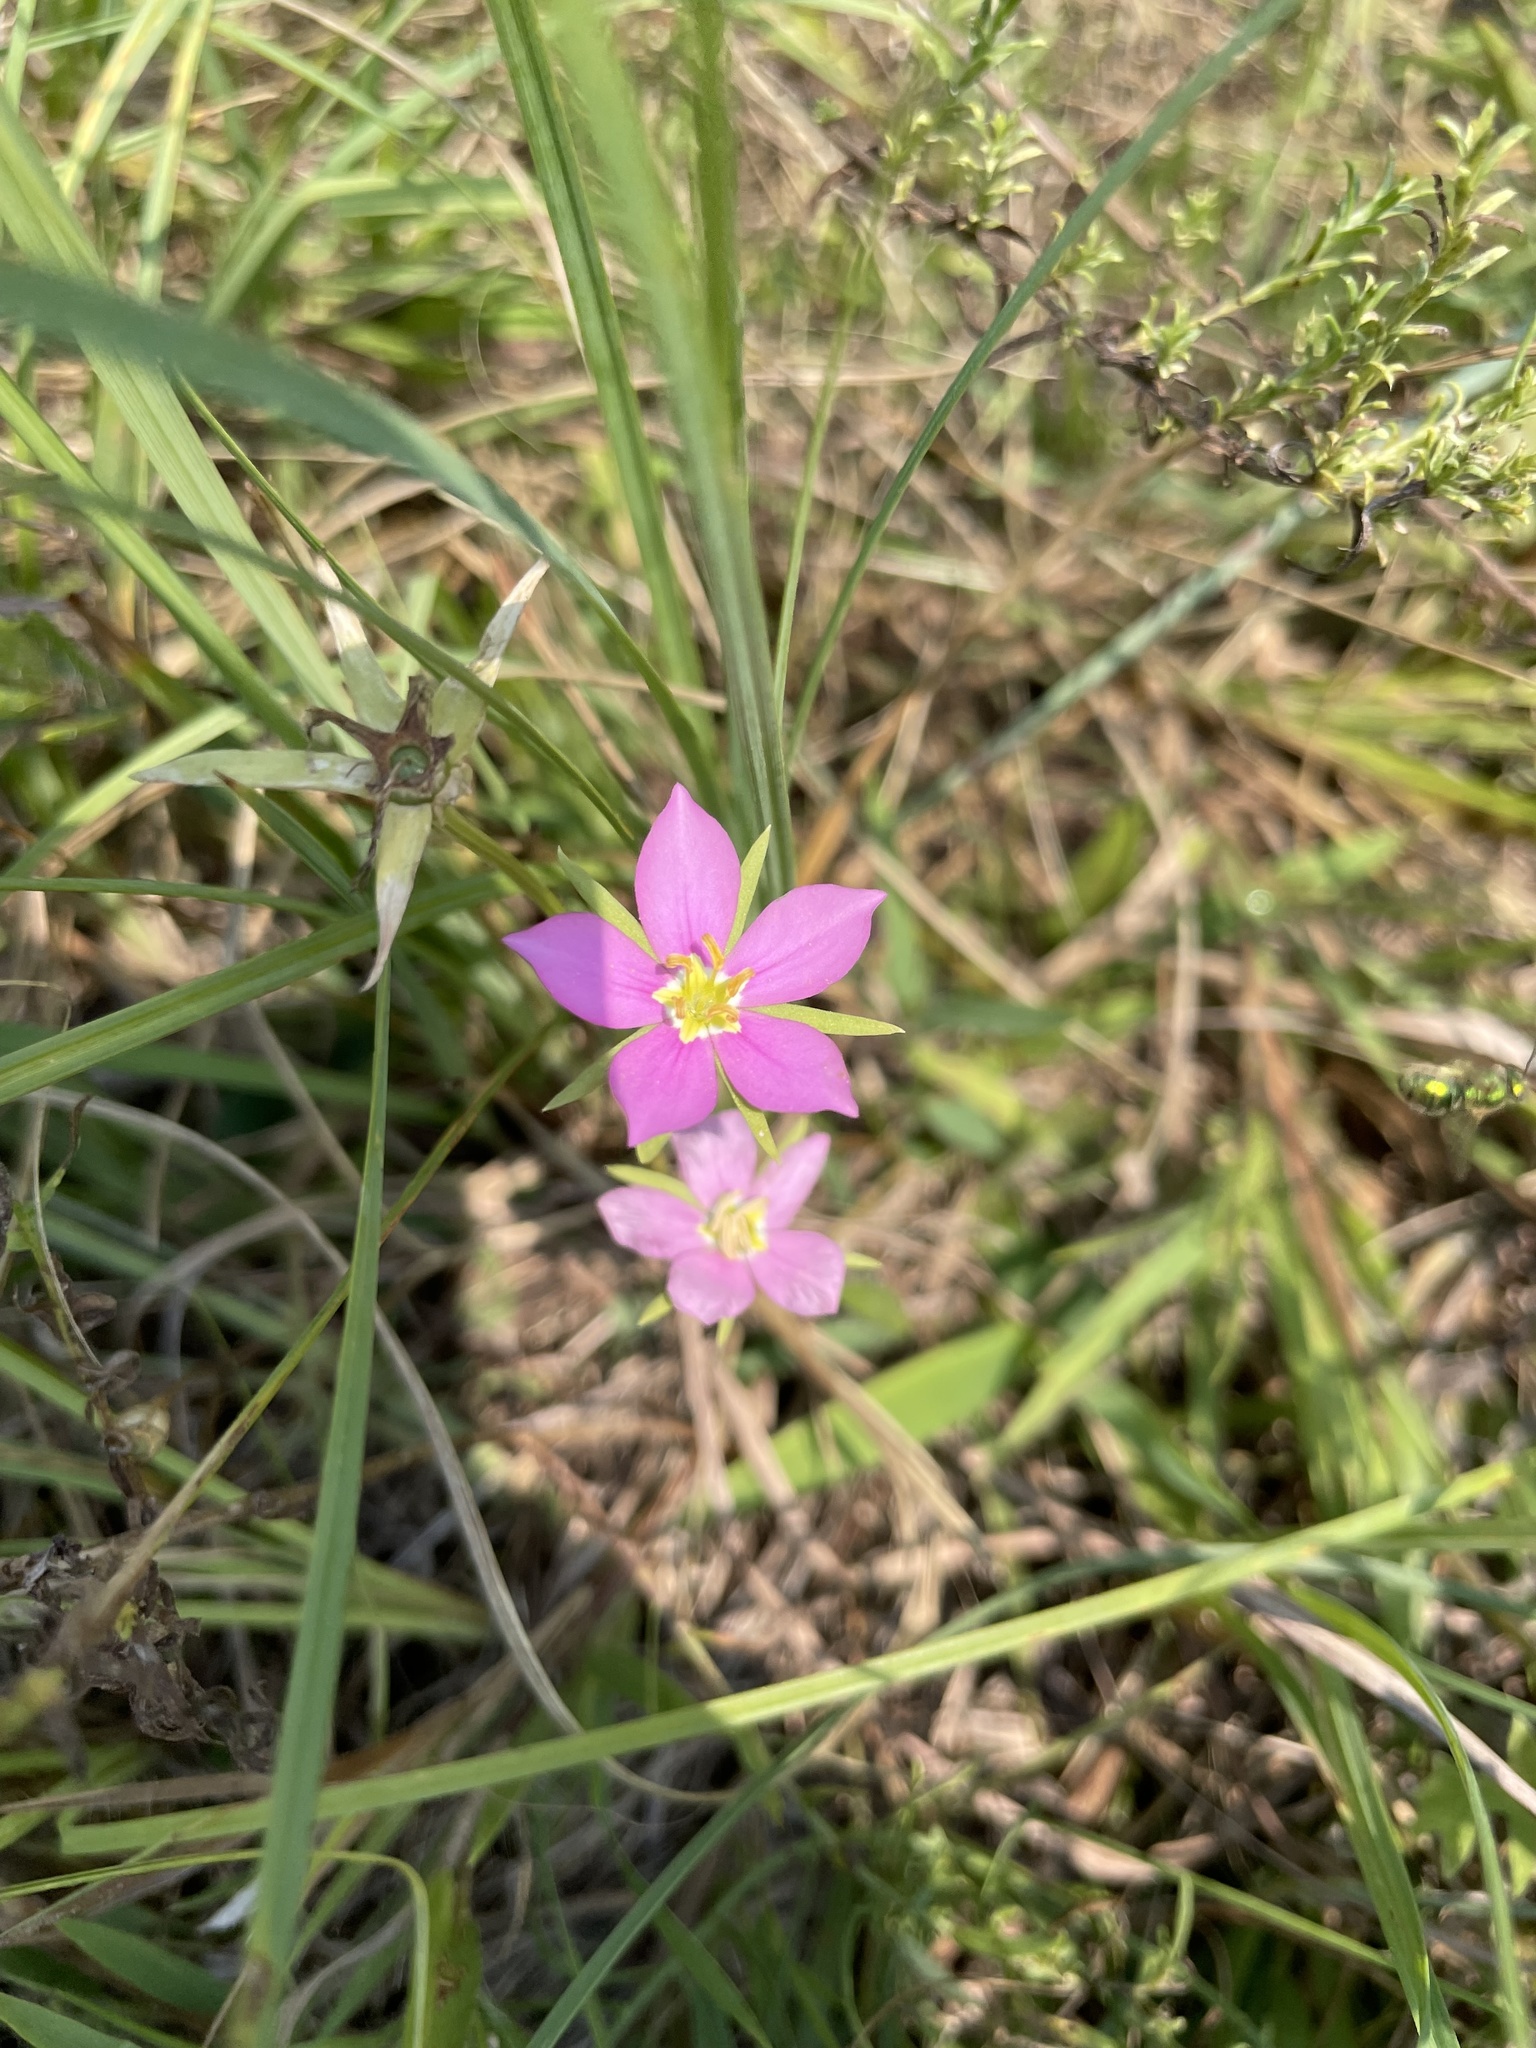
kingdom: Plantae
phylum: Tracheophyta
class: Magnoliopsida
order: Gentianales
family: Gentianaceae
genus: Sabatia
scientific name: Sabatia campestris
